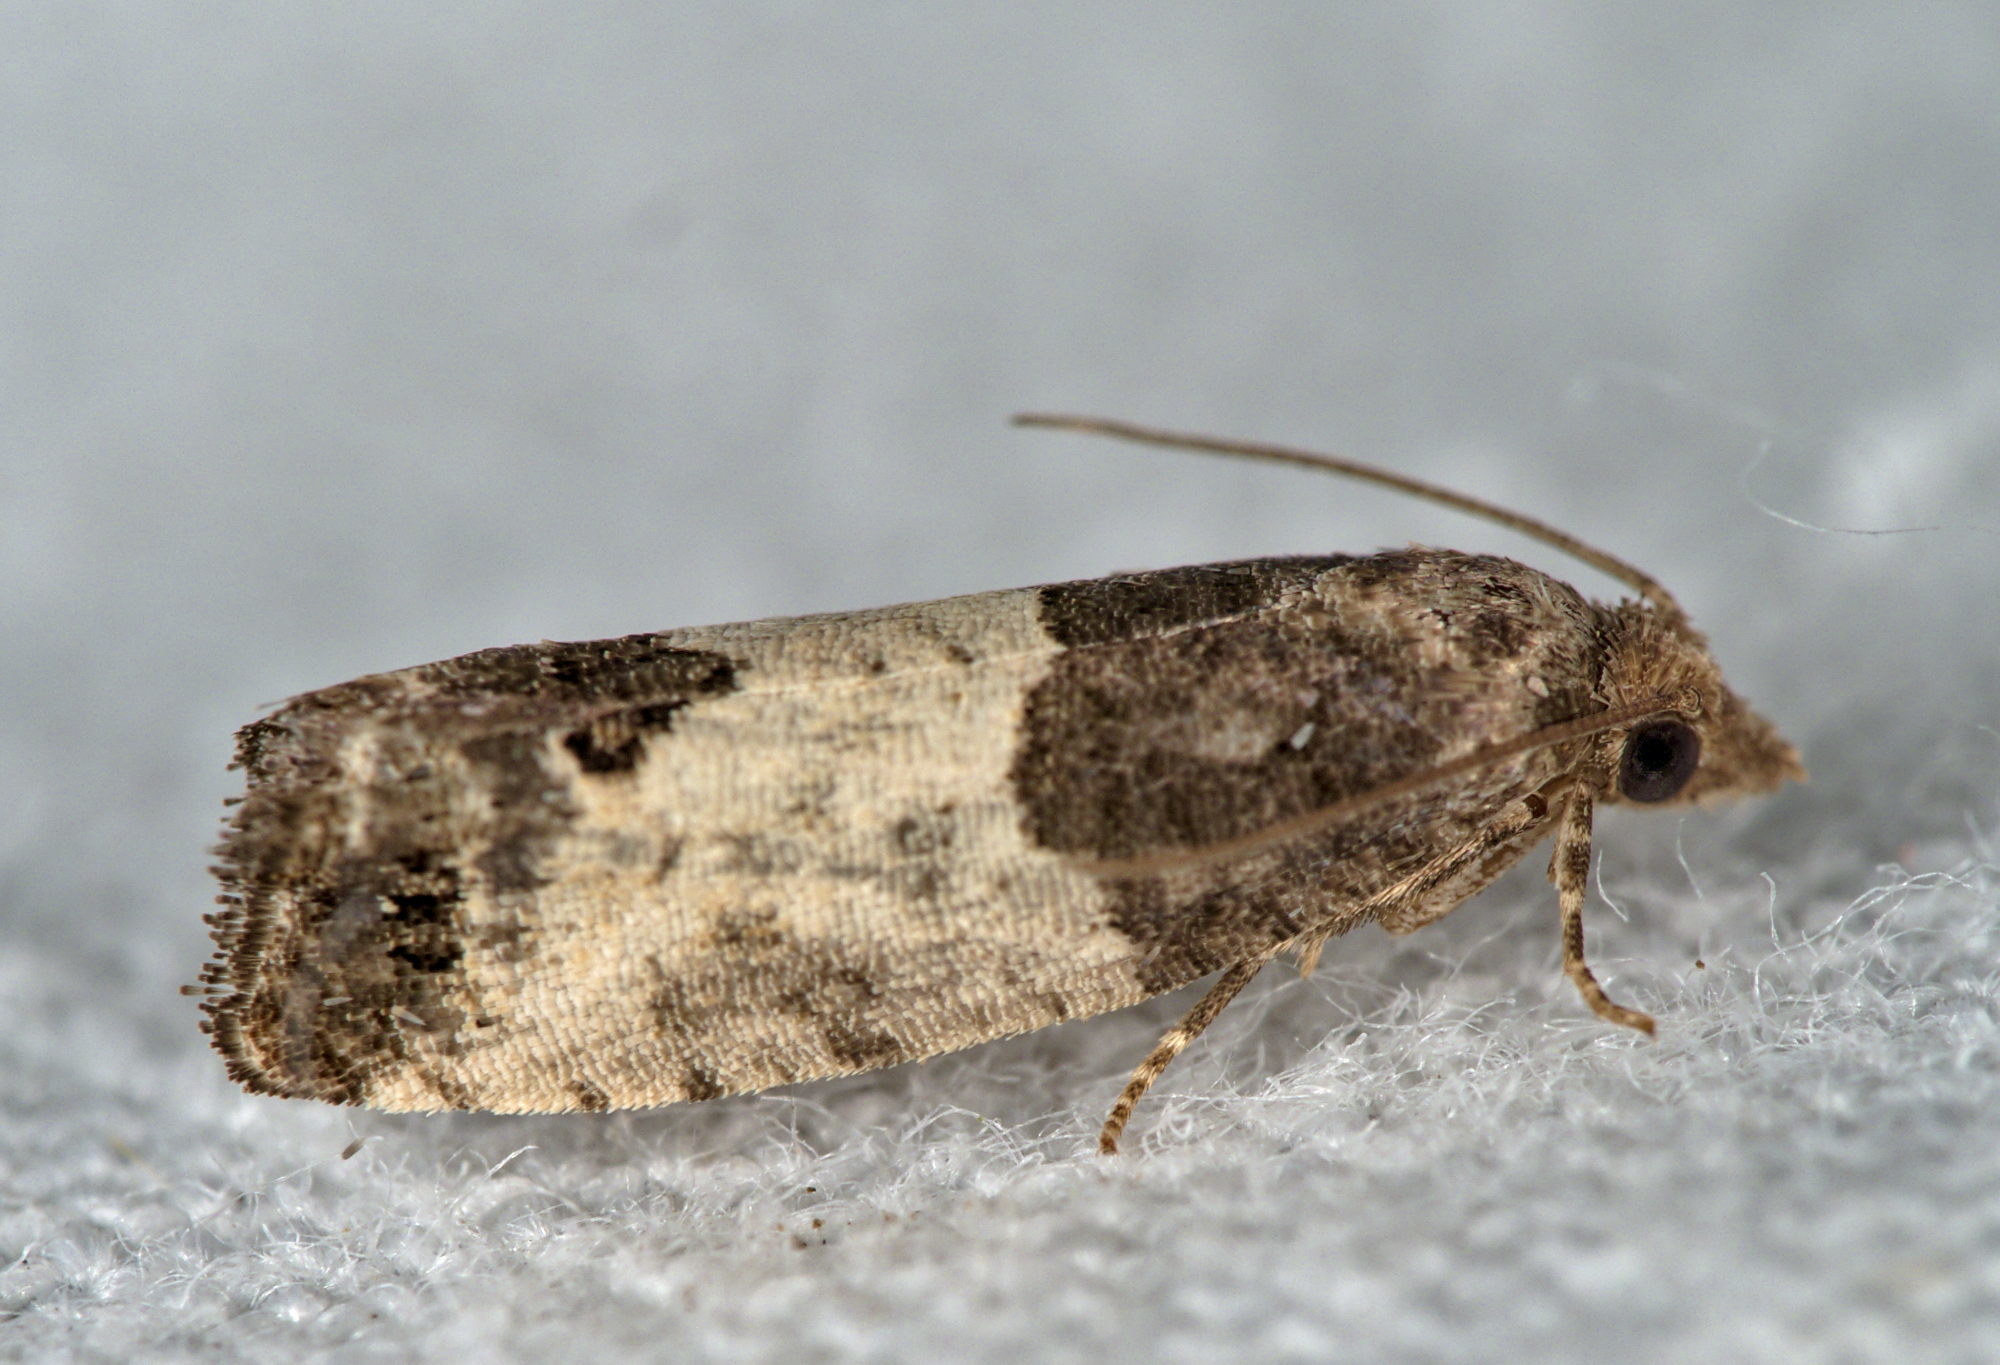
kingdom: Animalia
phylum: Arthropoda
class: Insecta
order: Lepidoptera
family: Tortricidae
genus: Spilonota
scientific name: Spilonota ocellana
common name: Bud moth
